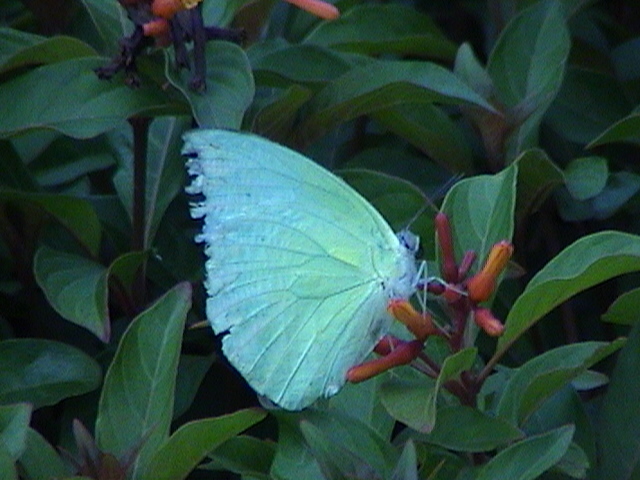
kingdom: Animalia
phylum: Arthropoda
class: Insecta
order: Lepidoptera
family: Pieridae
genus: Catopsilia
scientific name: Catopsilia pomona
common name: Common emigrant
